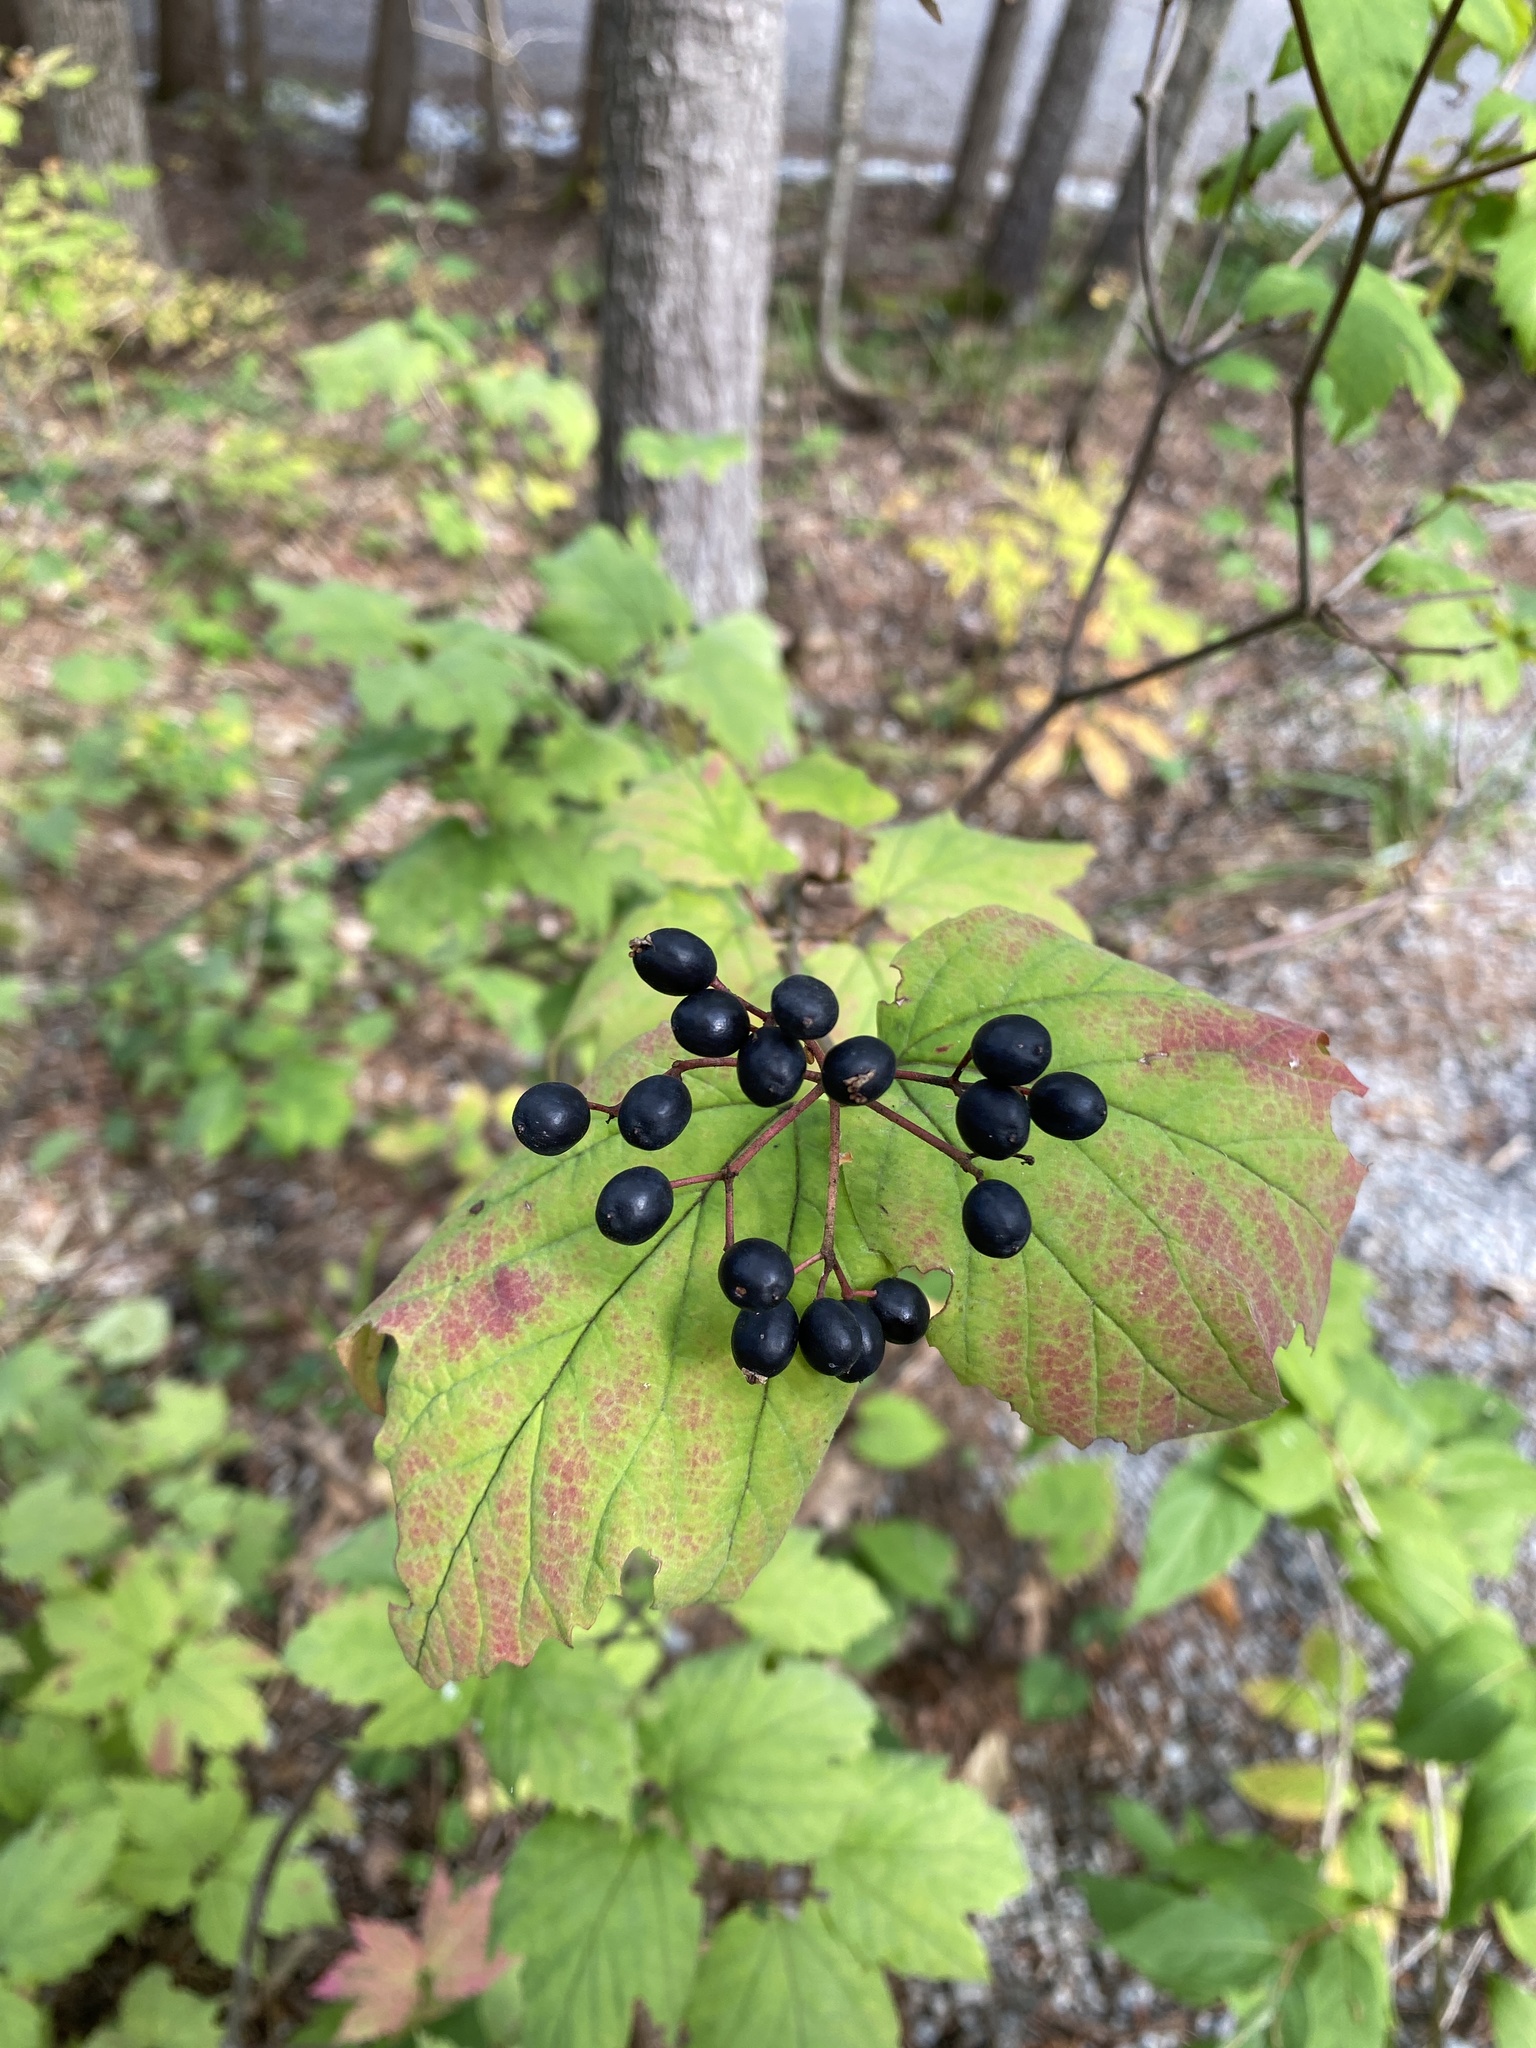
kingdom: Plantae
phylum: Tracheophyta
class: Magnoliopsida
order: Dipsacales
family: Viburnaceae
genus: Viburnum
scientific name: Viburnum acerifolium
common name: Dockmackie
